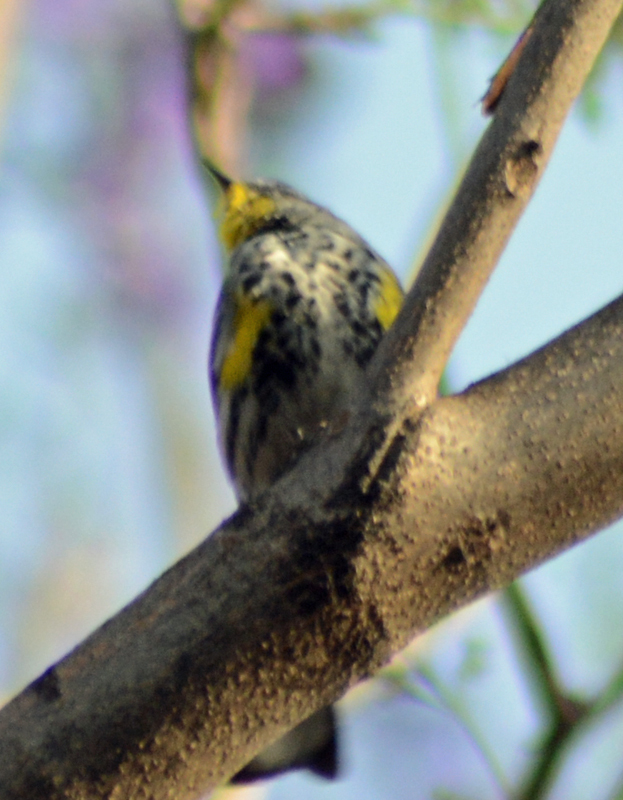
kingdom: Animalia
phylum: Chordata
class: Aves
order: Passeriformes
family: Parulidae
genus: Setophaga
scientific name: Setophaga coronata
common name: Myrtle warbler
